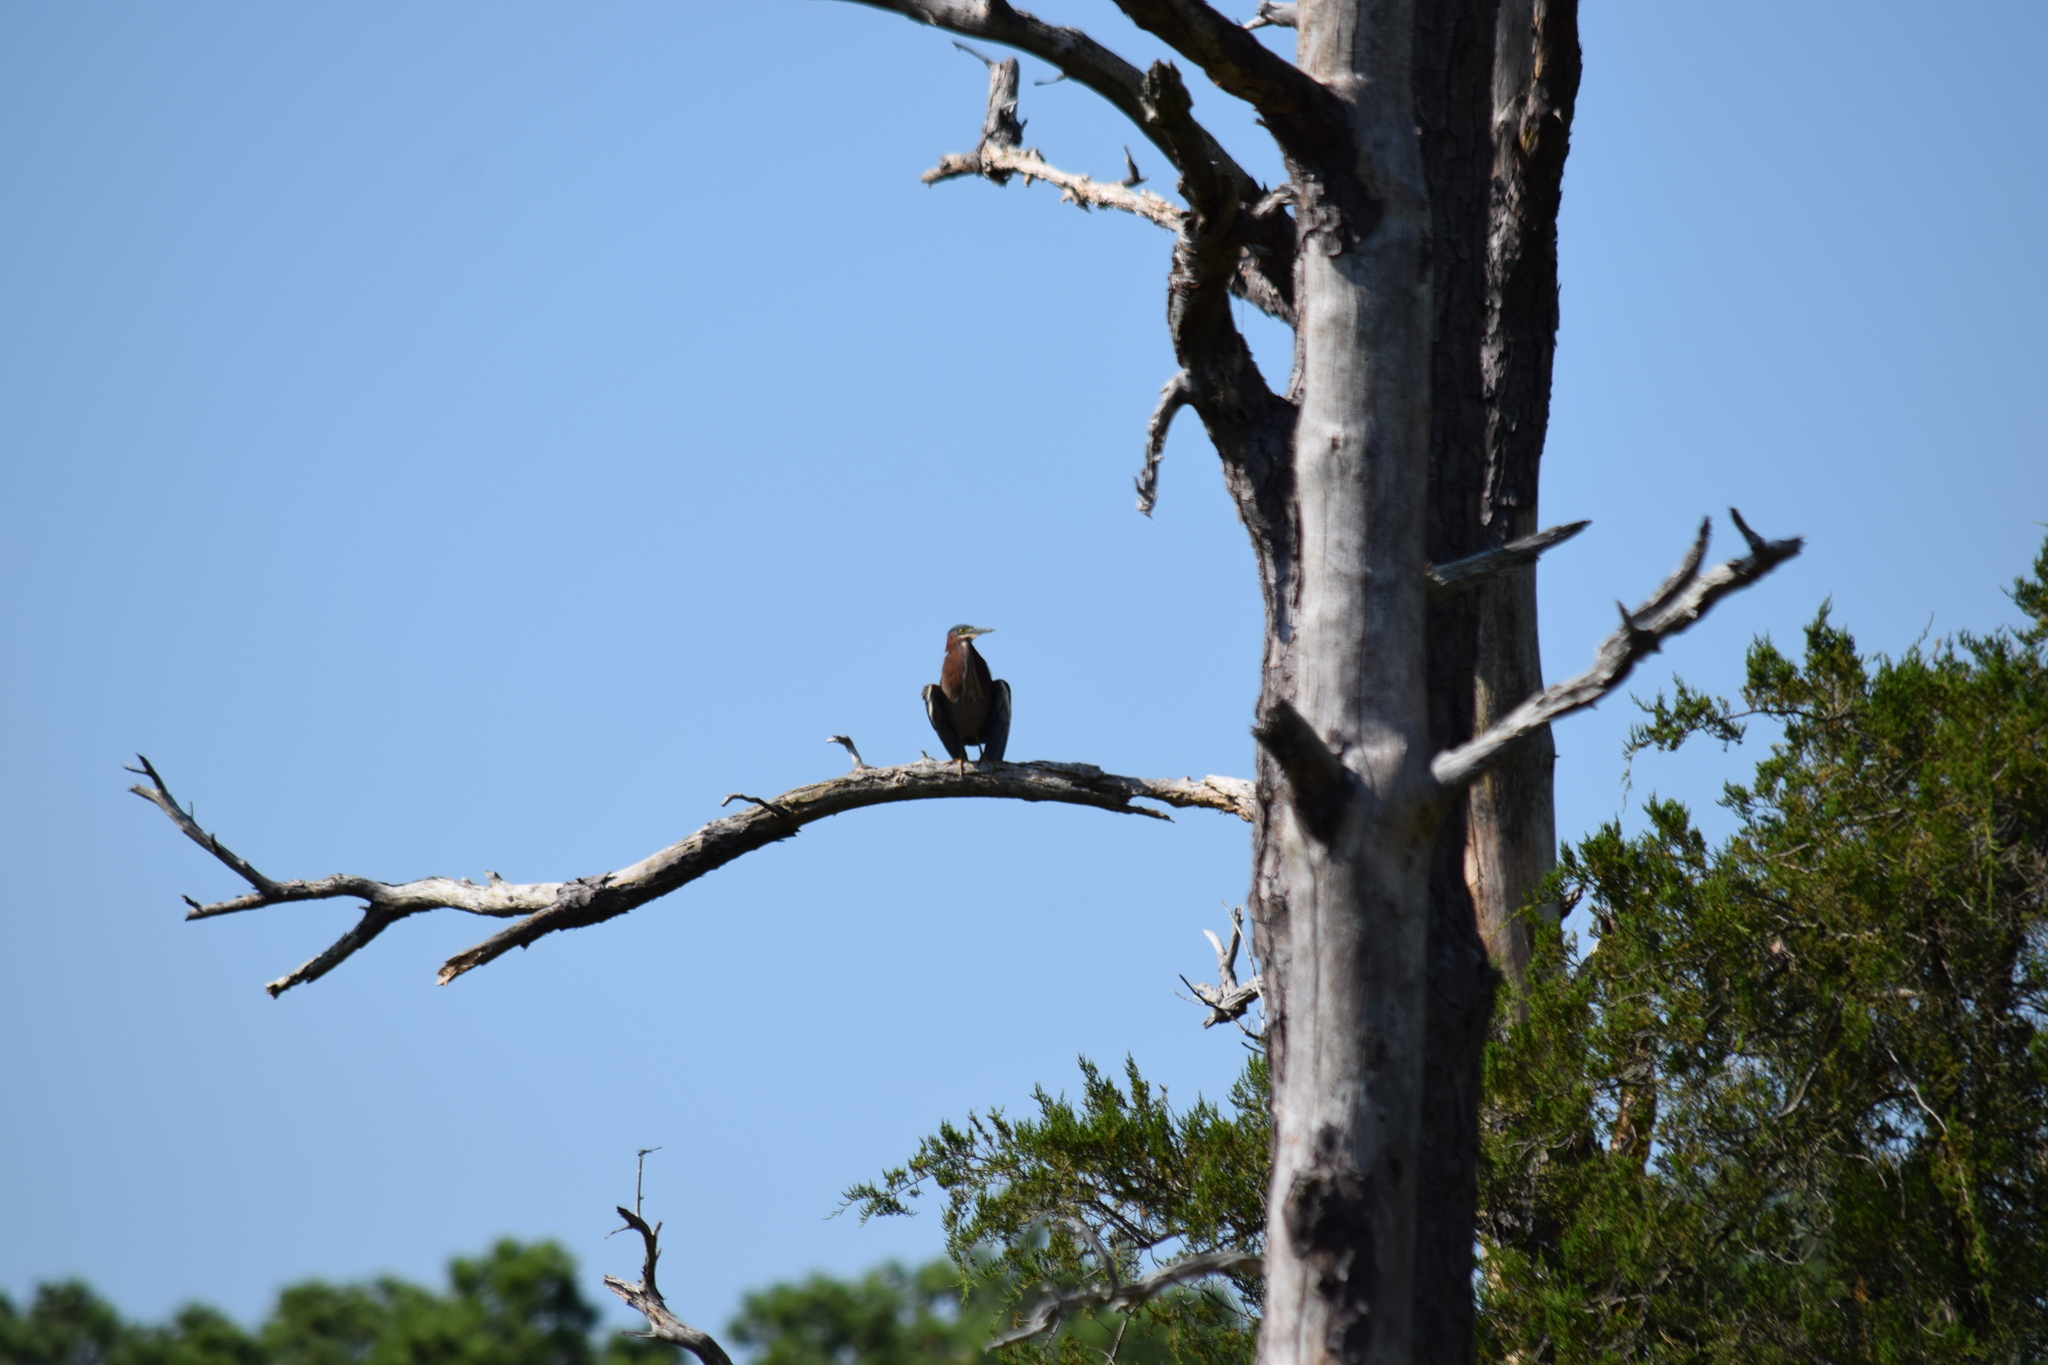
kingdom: Animalia
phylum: Chordata
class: Aves
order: Pelecaniformes
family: Ardeidae
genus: Butorides
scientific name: Butorides virescens
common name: Green heron
